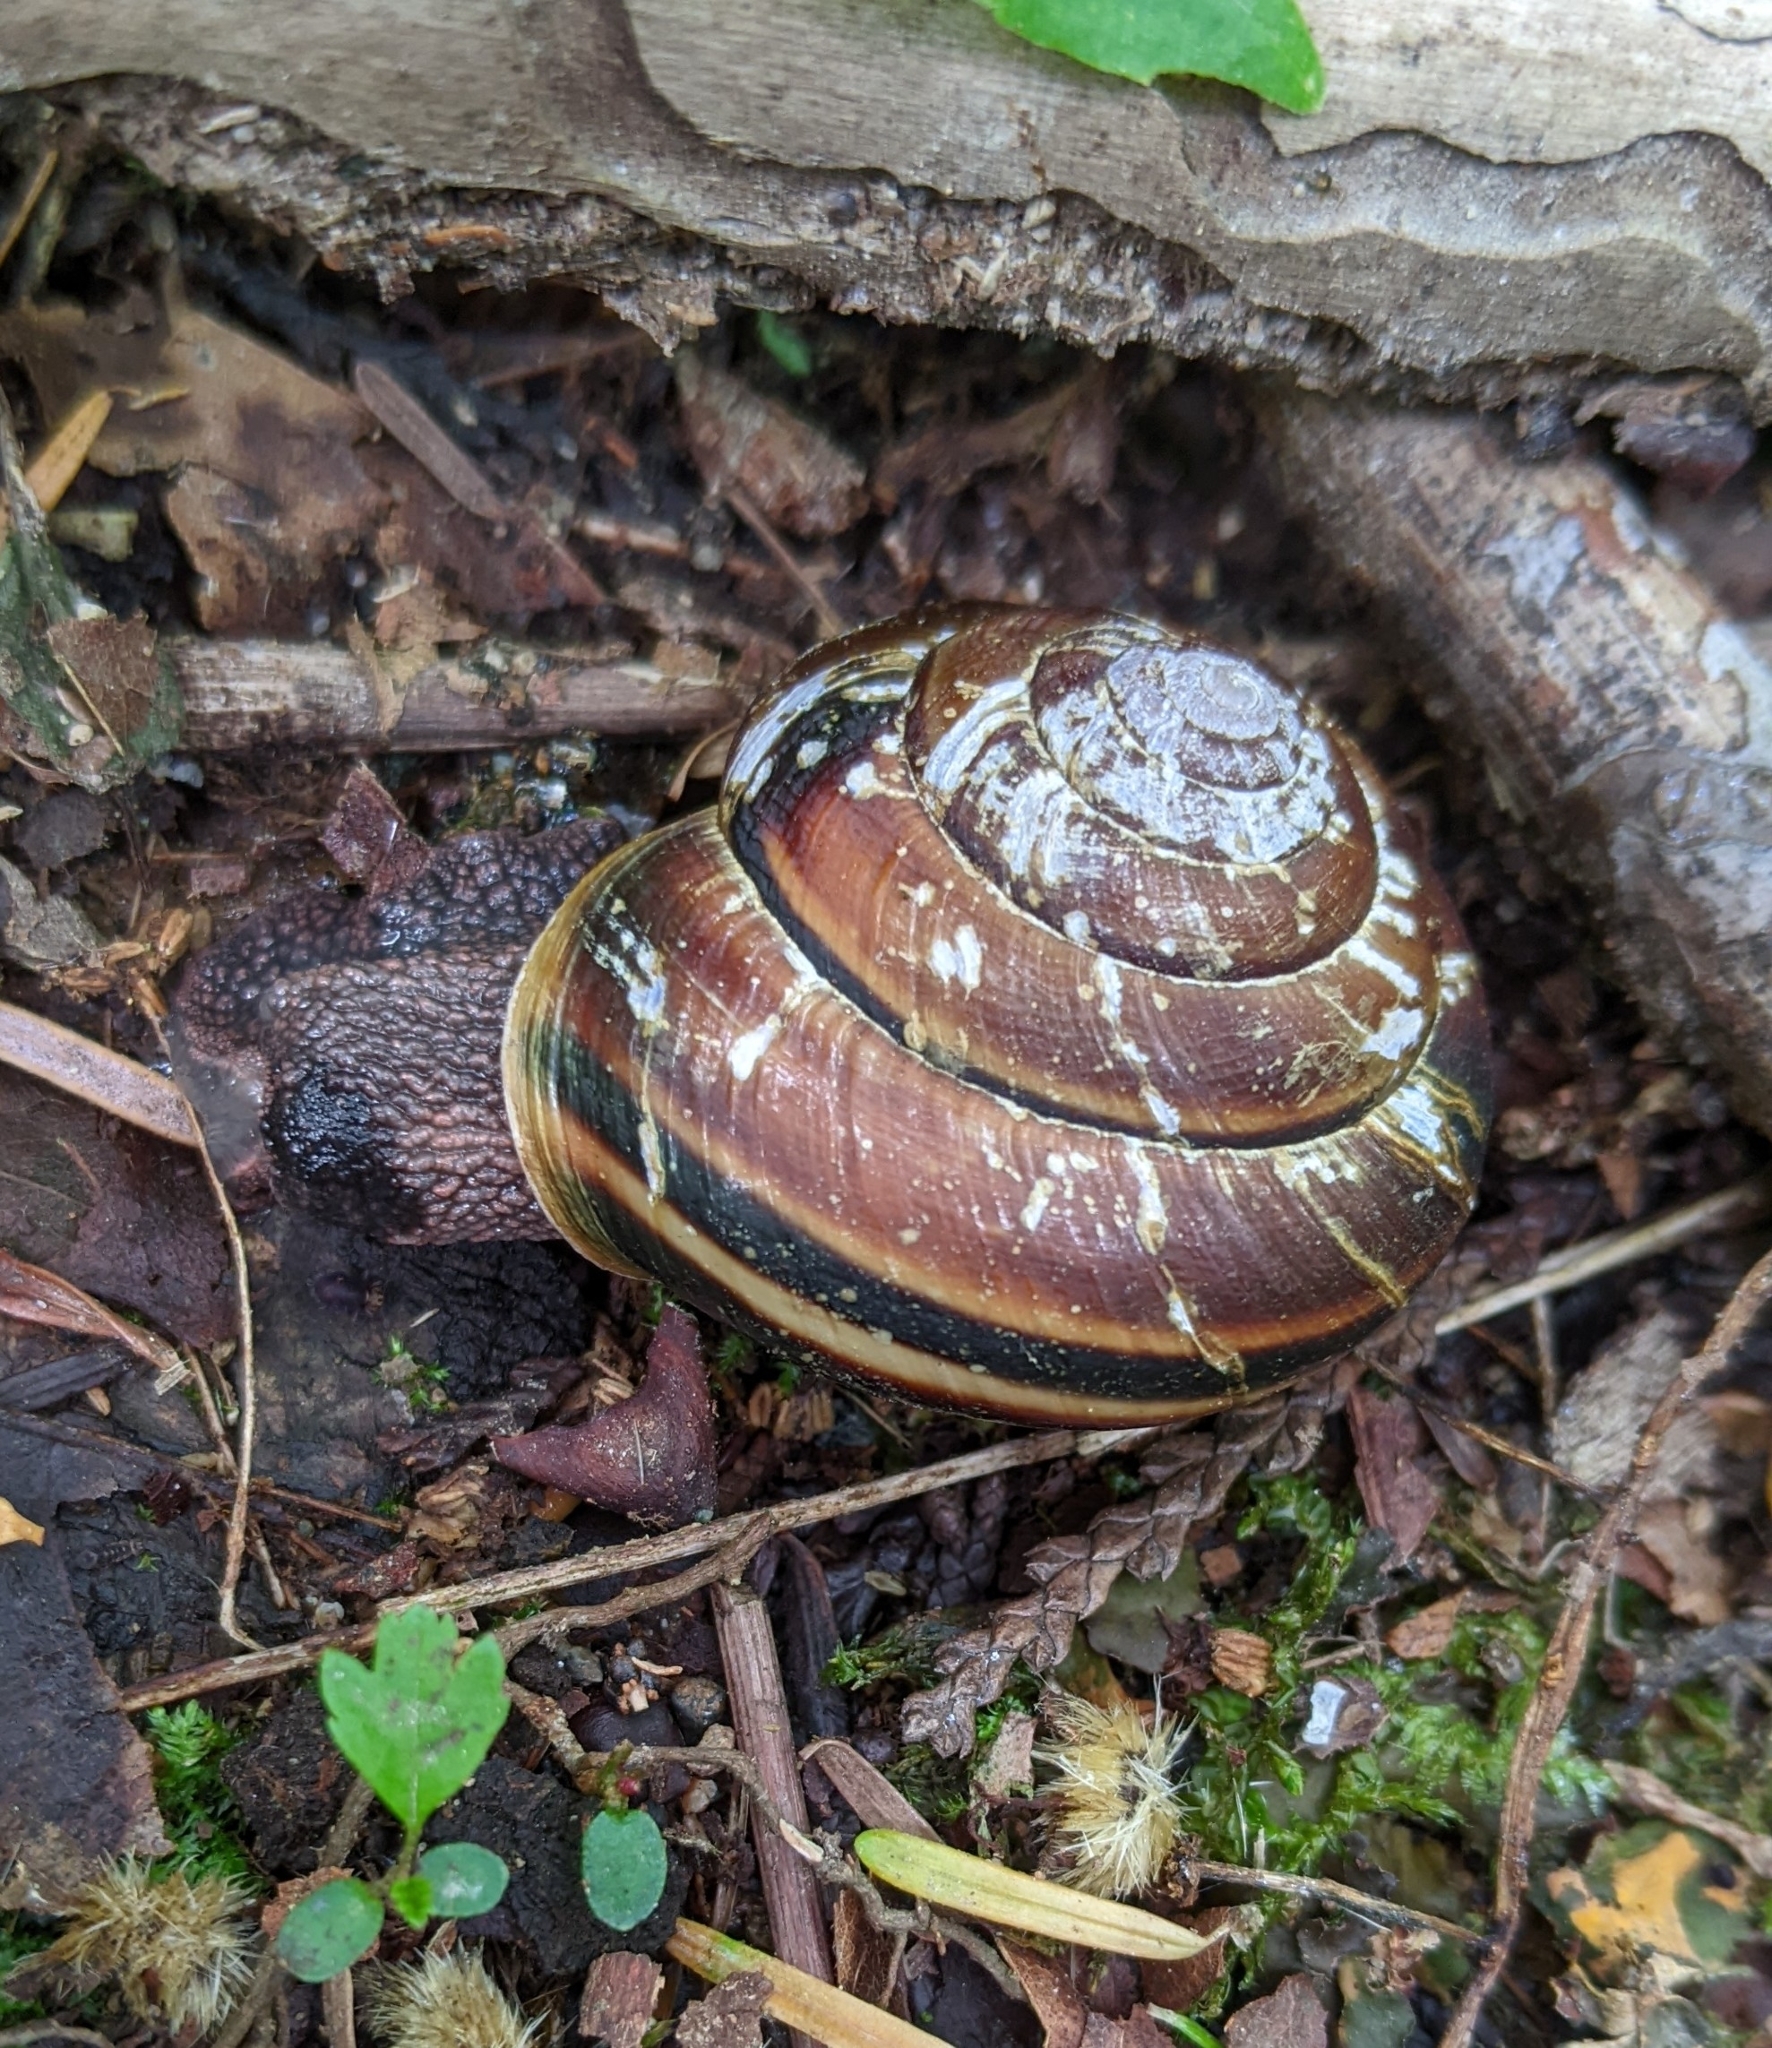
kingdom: Animalia
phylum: Mollusca
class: Gastropoda
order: Stylommatophora
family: Xanthonychidae
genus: Monadenia
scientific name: Monadenia fidelis
